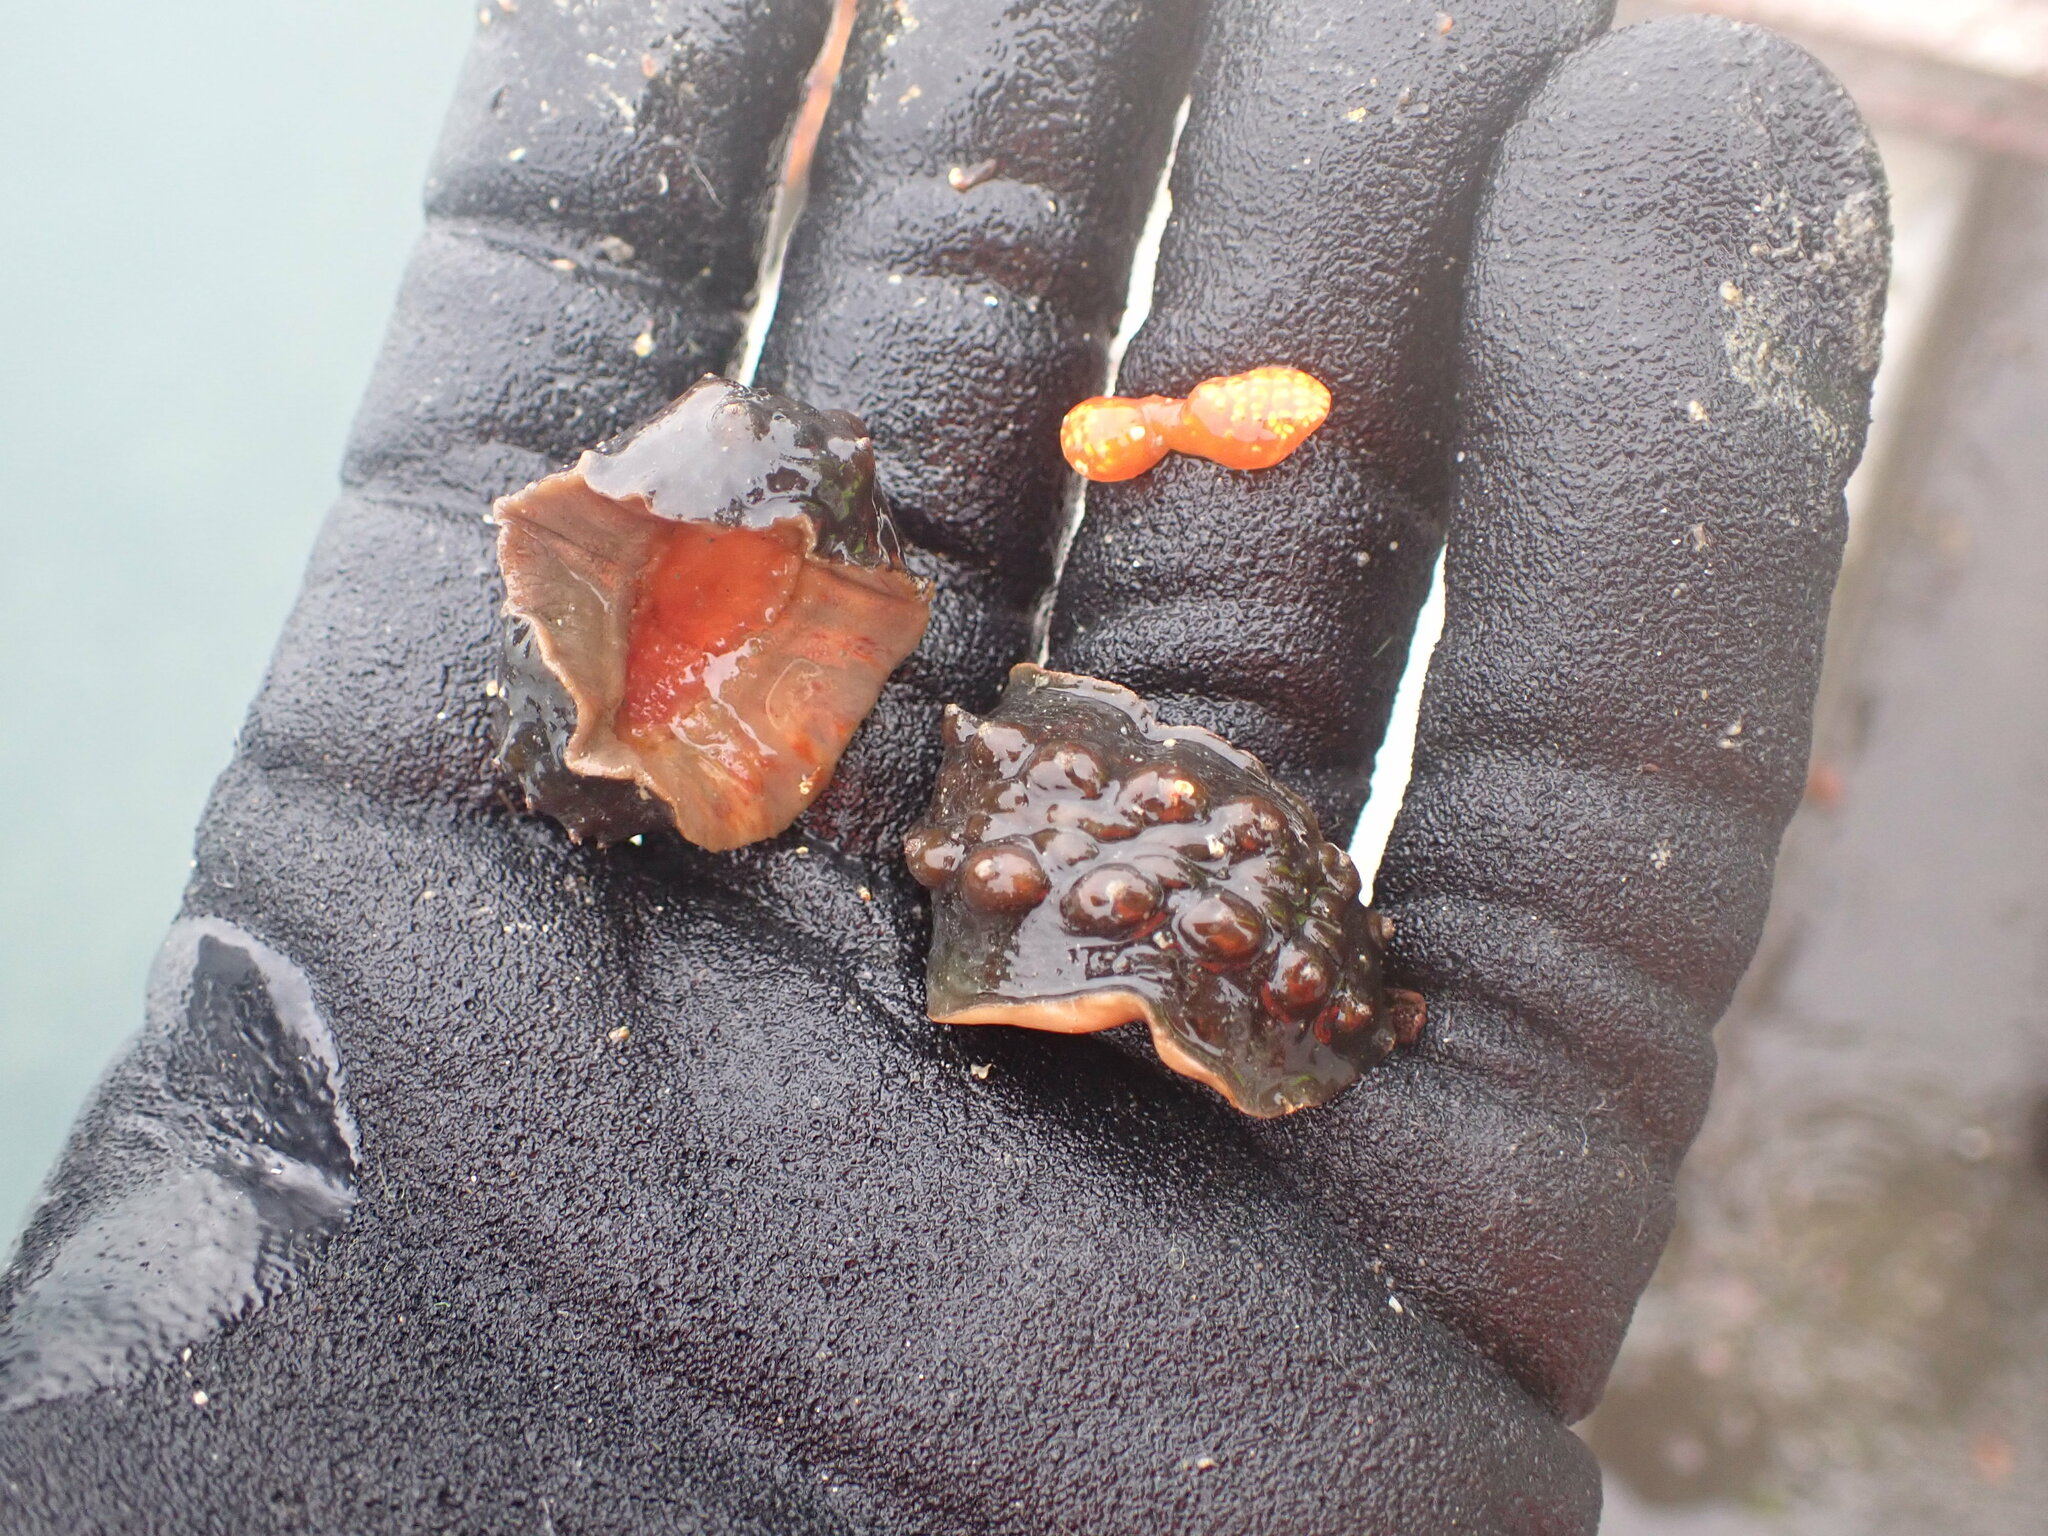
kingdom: Animalia
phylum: Mollusca
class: Polyplacophora
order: Chitonida
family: Acanthochitonidae
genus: Cryptoconchus
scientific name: Cryptoconchus porosus
